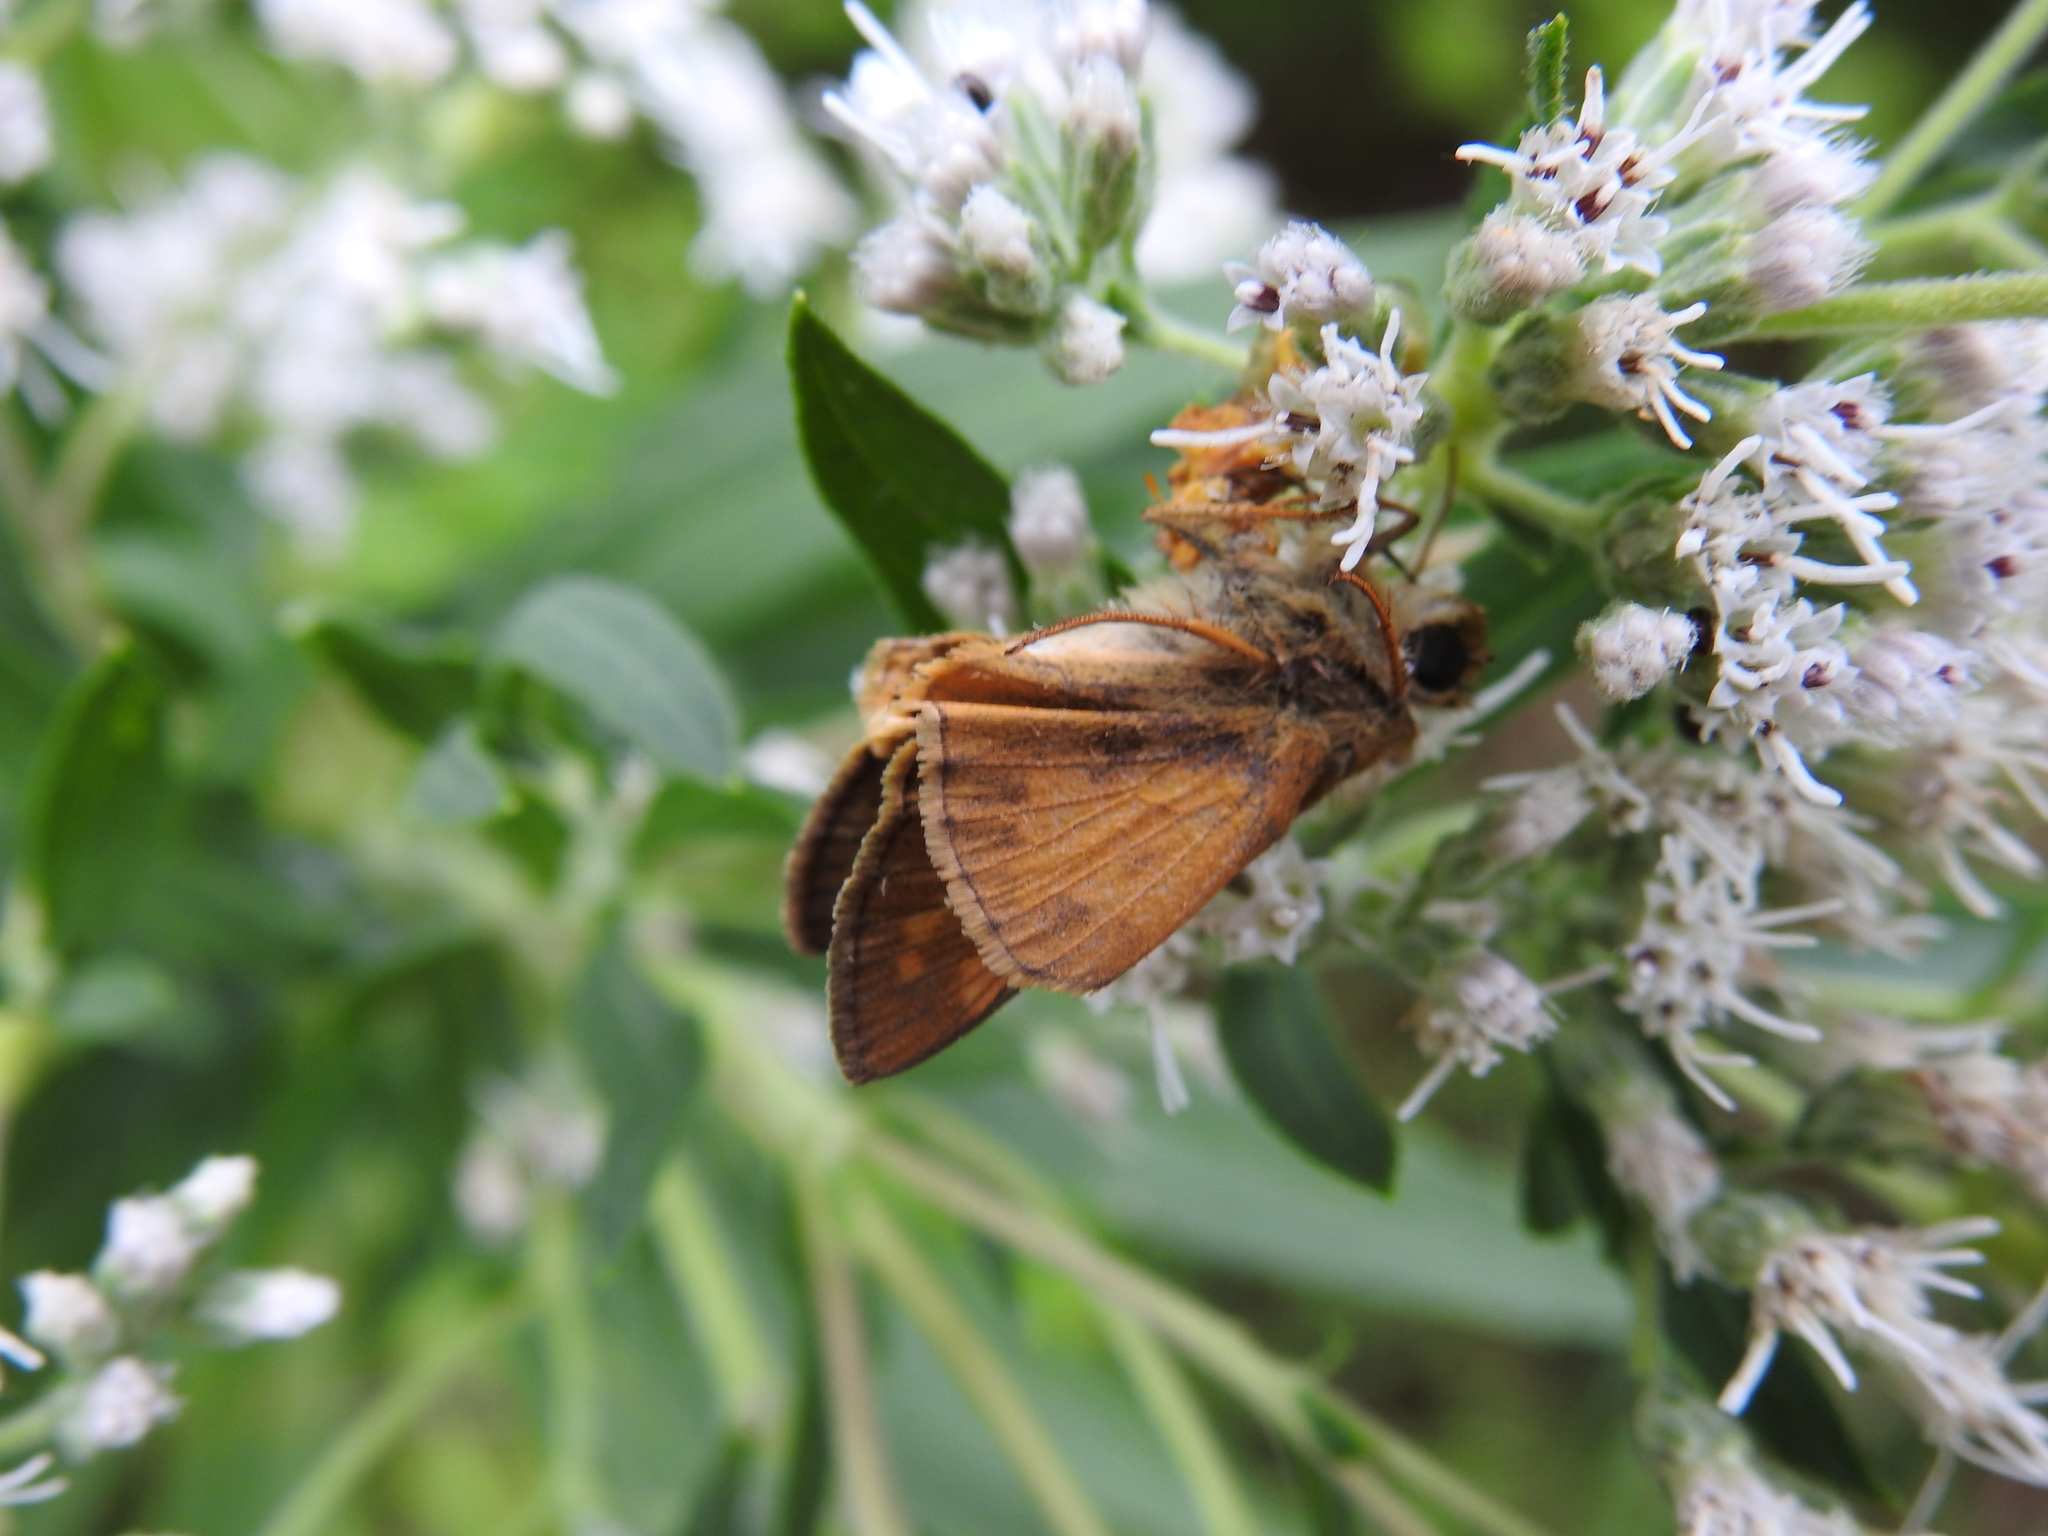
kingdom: Animalia
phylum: Arthropoda
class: Insecta
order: Lepidoptera
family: Hesperiidae
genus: Atalopedes
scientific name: Atalopedes
